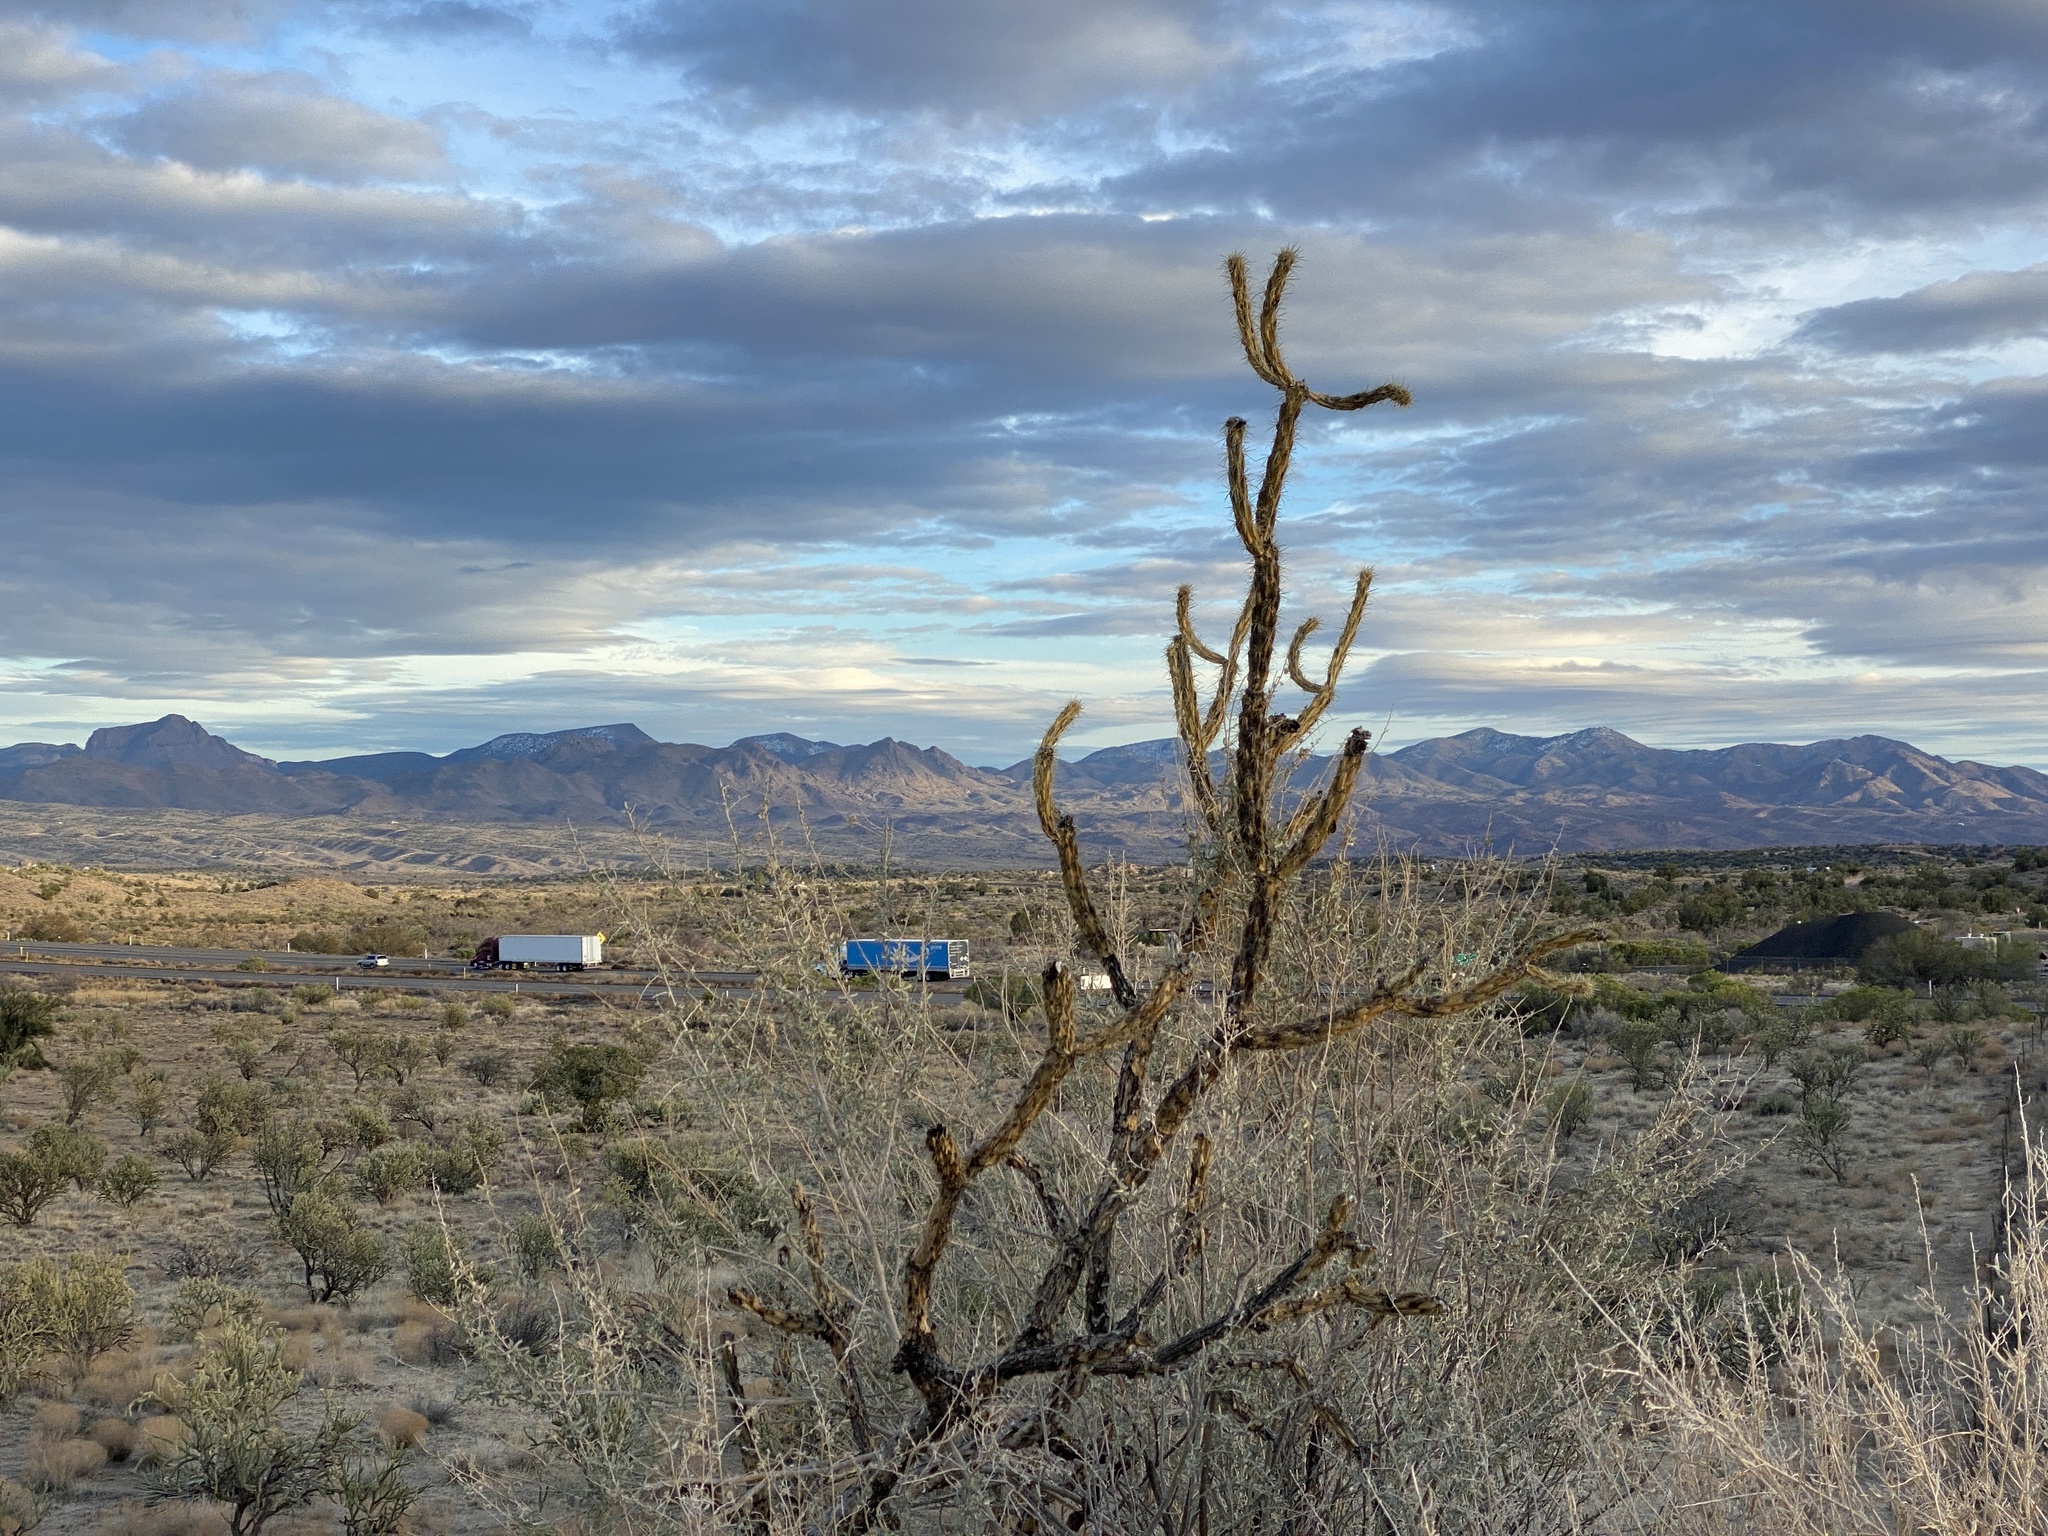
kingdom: Plantae
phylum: Tracheophyta
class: Magnoliopsida
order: Caryophyllales
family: Cactaceae
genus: Cylindropuntia
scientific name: Cylindropuntia acanthocarpa
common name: Buckhorn cholla
